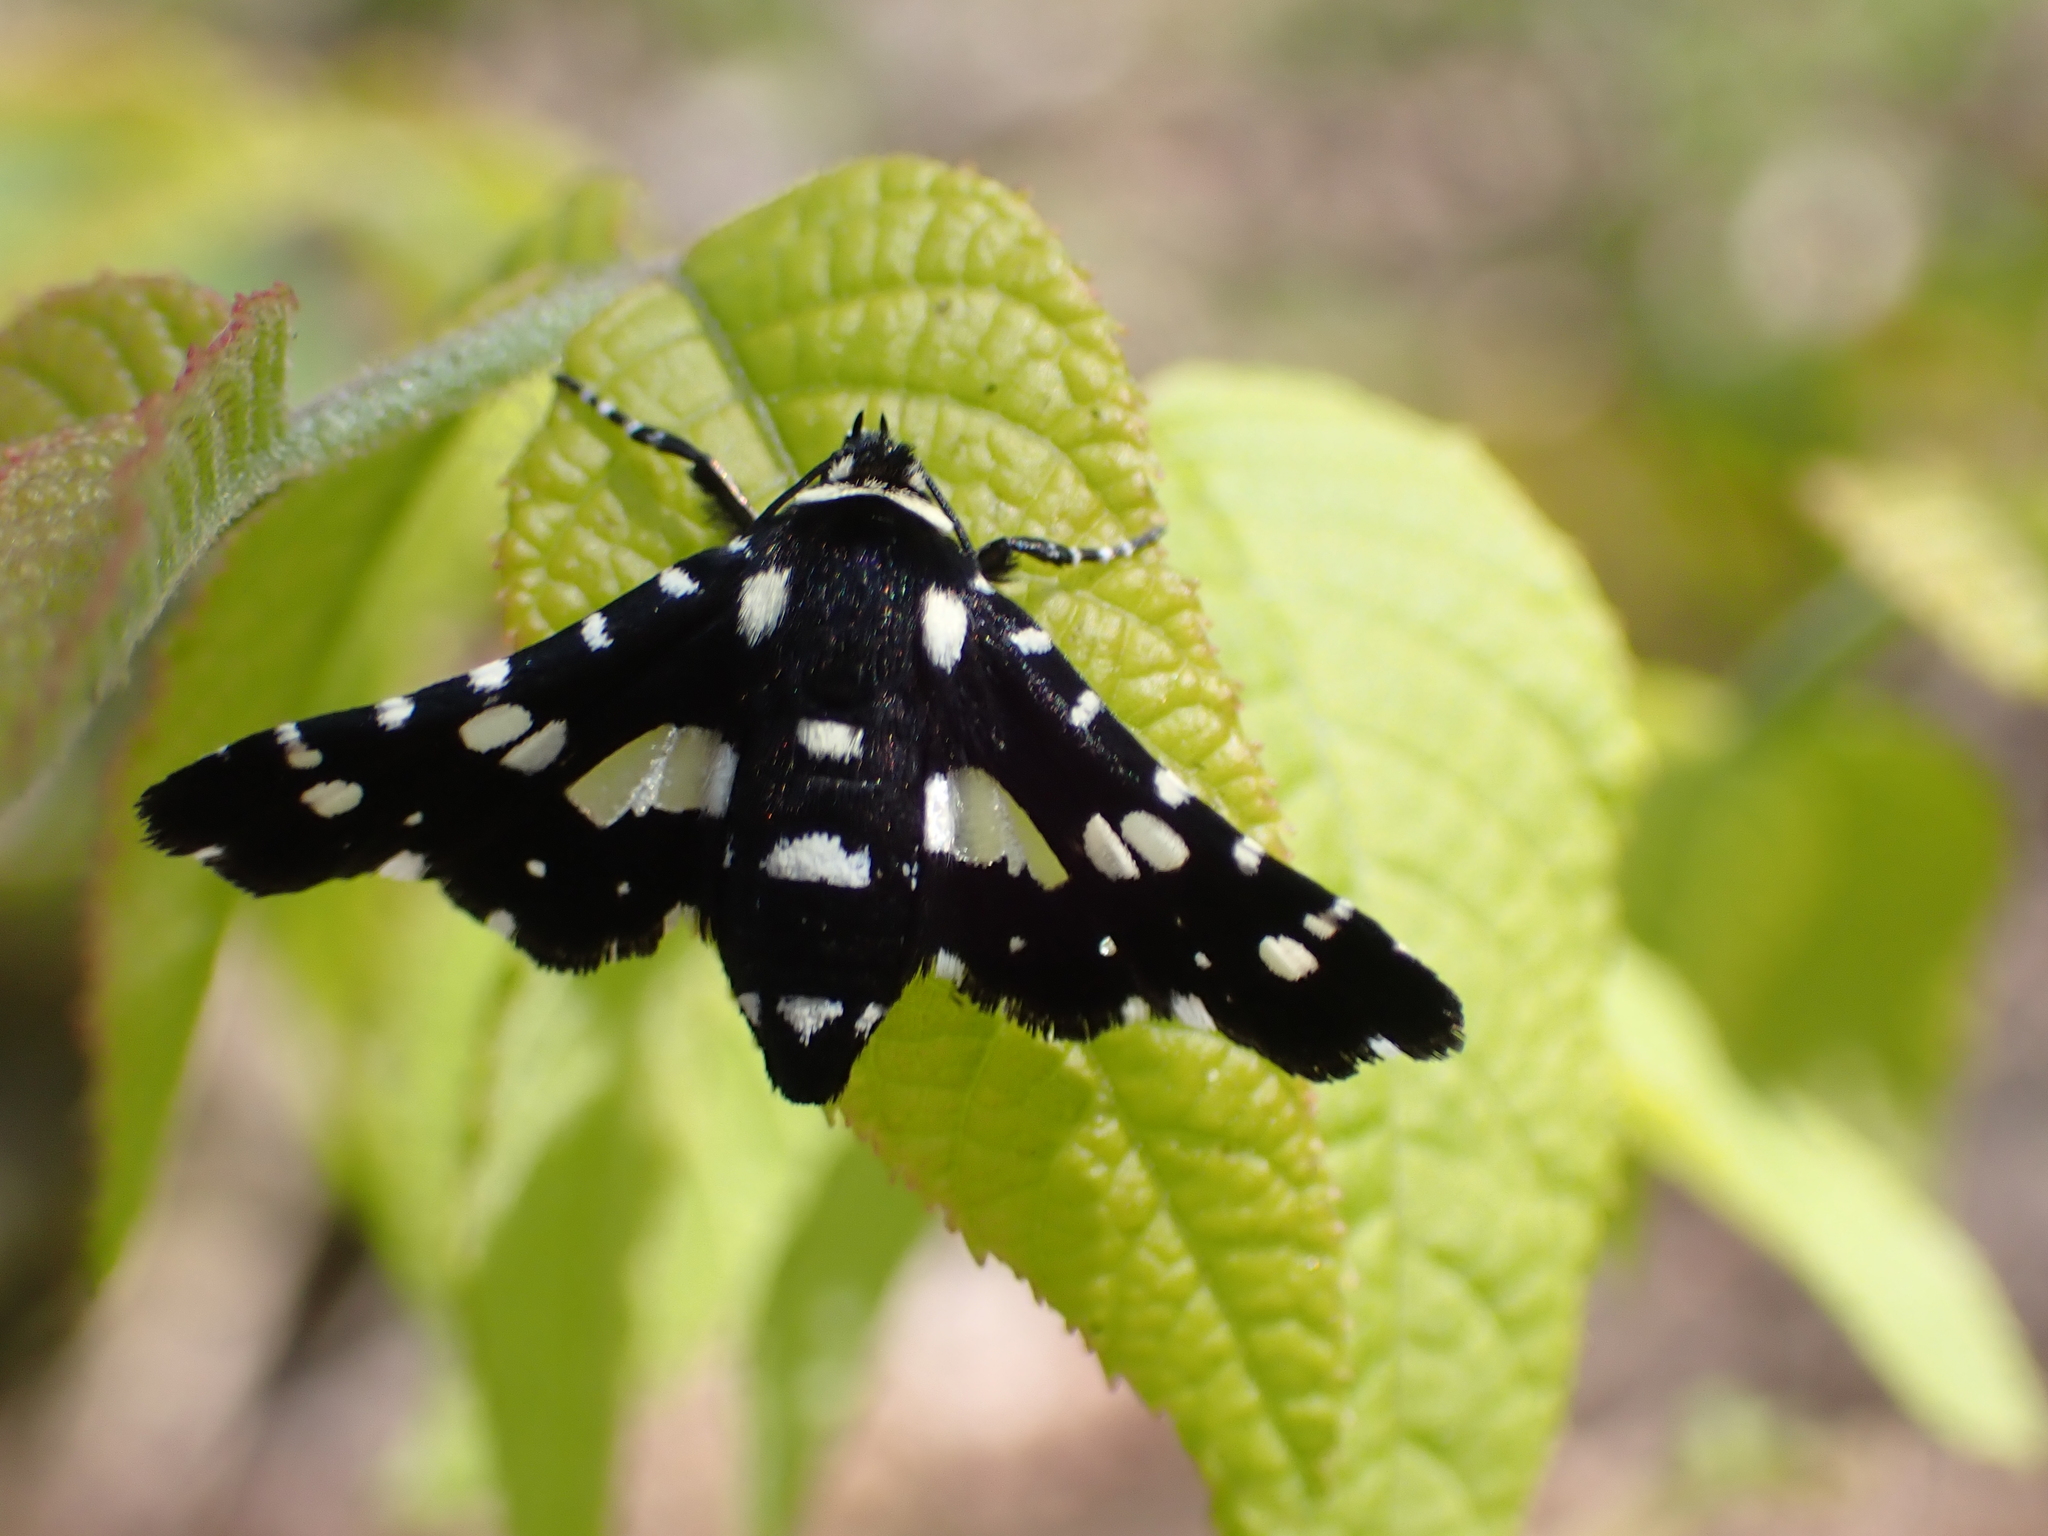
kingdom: Animalia
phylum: Arthropoda
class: Insecta
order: Lepidoptera
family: Thyrididae
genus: Pseudothyris
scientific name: Pseudothyris sepulchralis
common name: Mournful thyris moth
